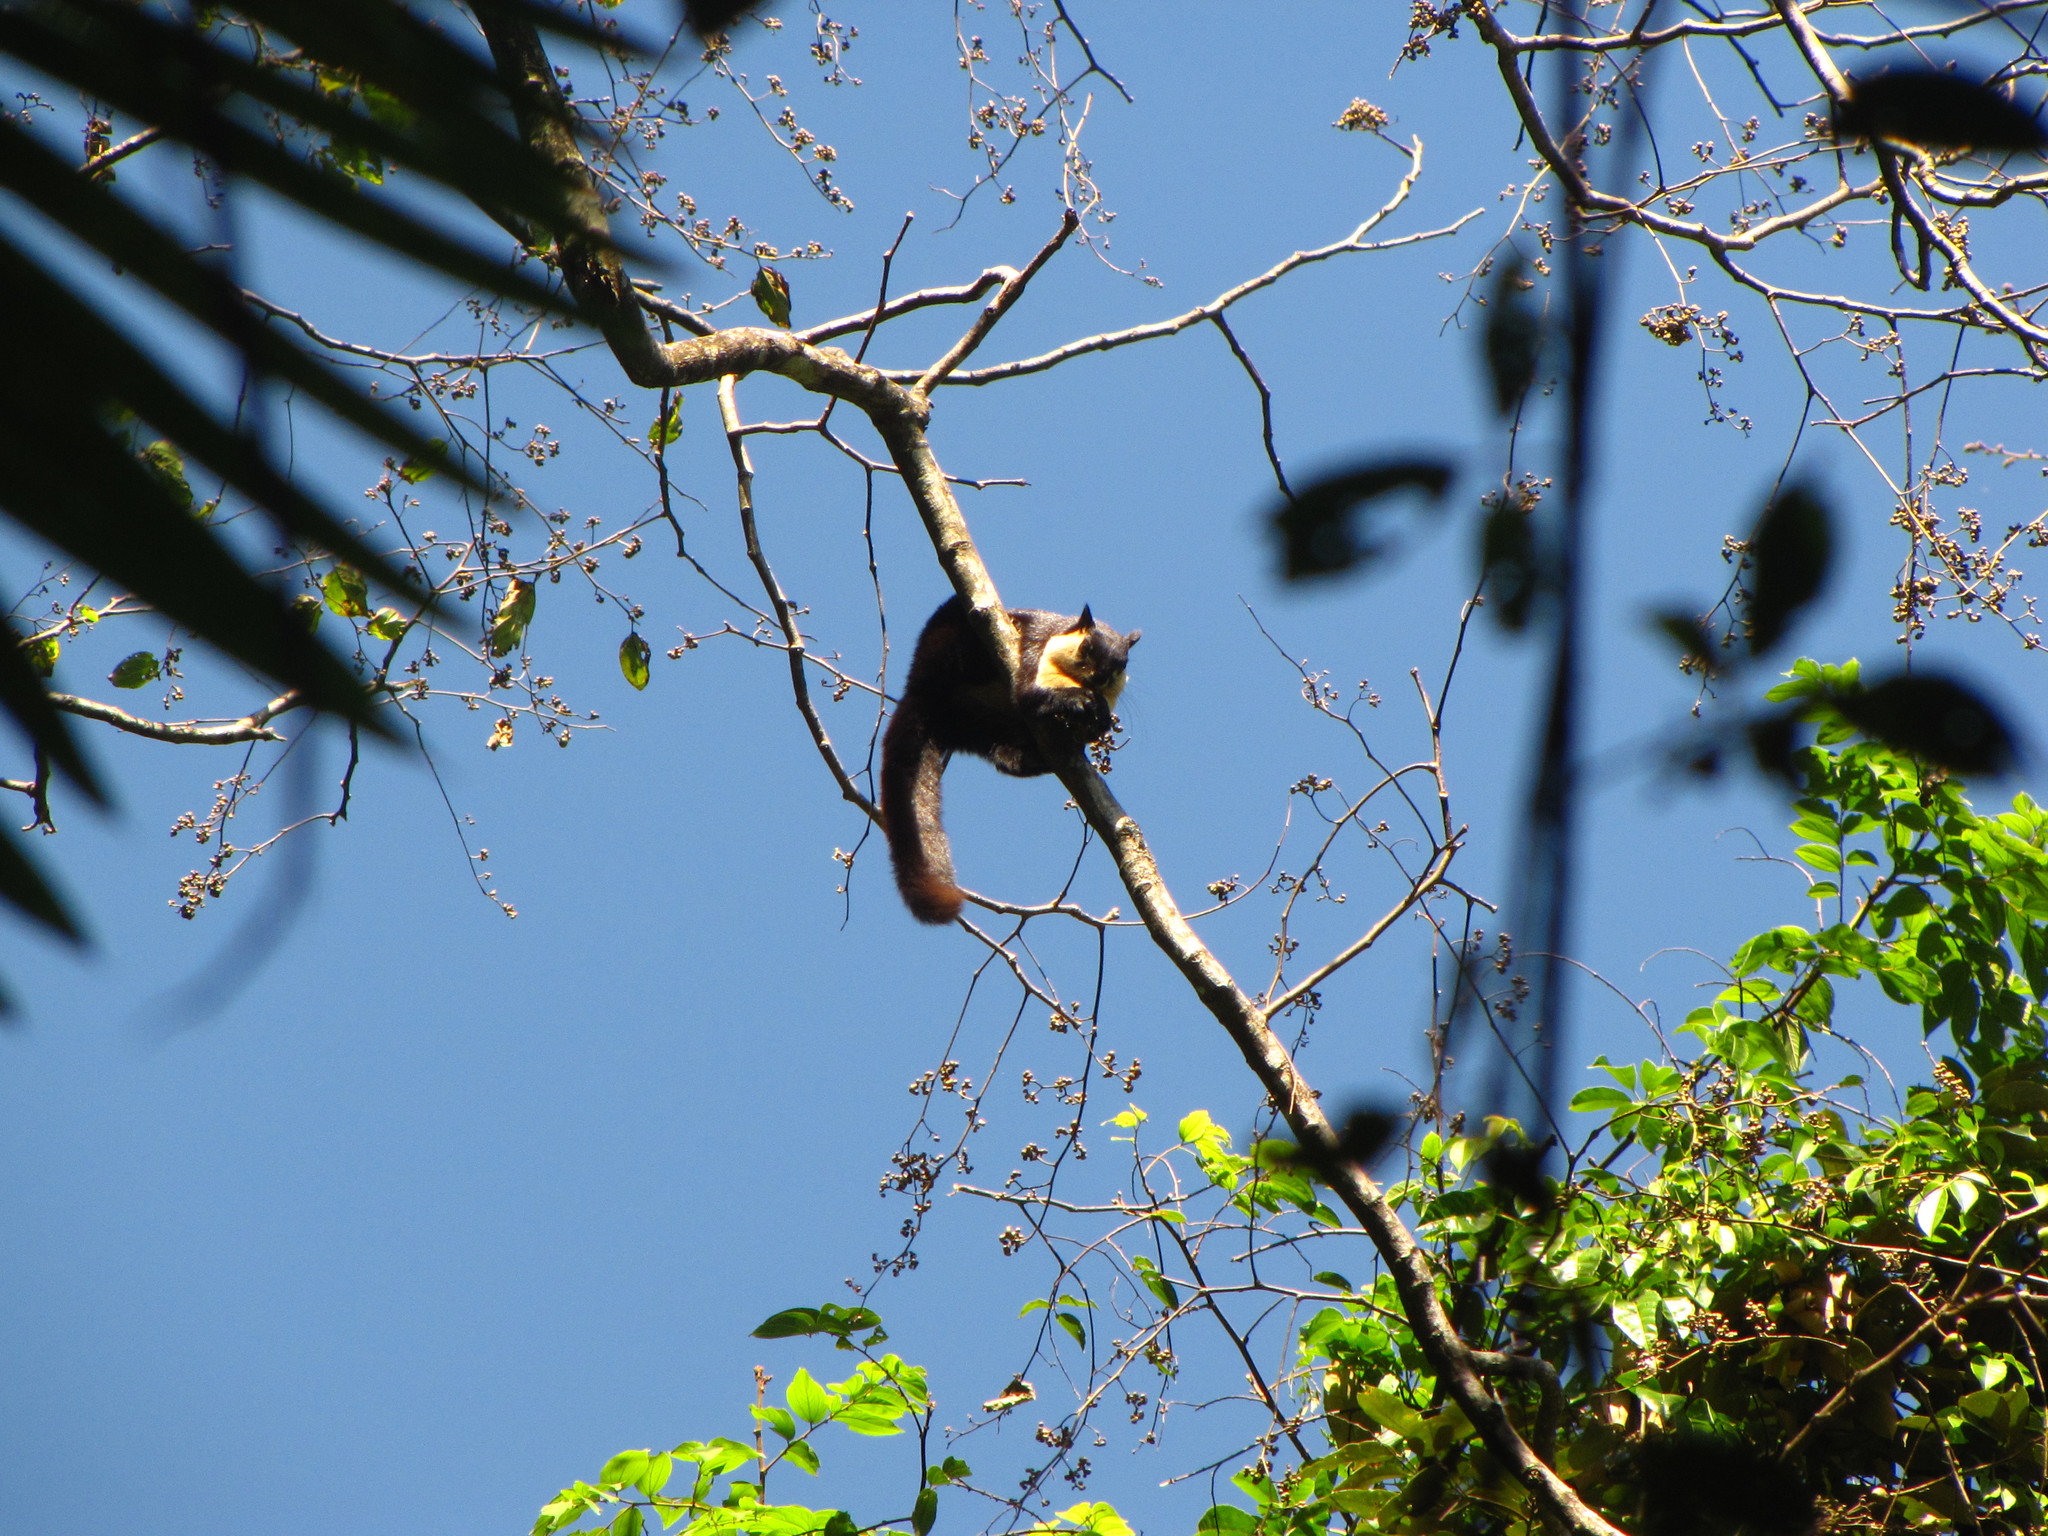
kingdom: Animalia
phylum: Chordata
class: Mammalia
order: Rodentia
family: Sciuridae
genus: Ratufa
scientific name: Ratufa bicolor
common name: Black giant squirrel
